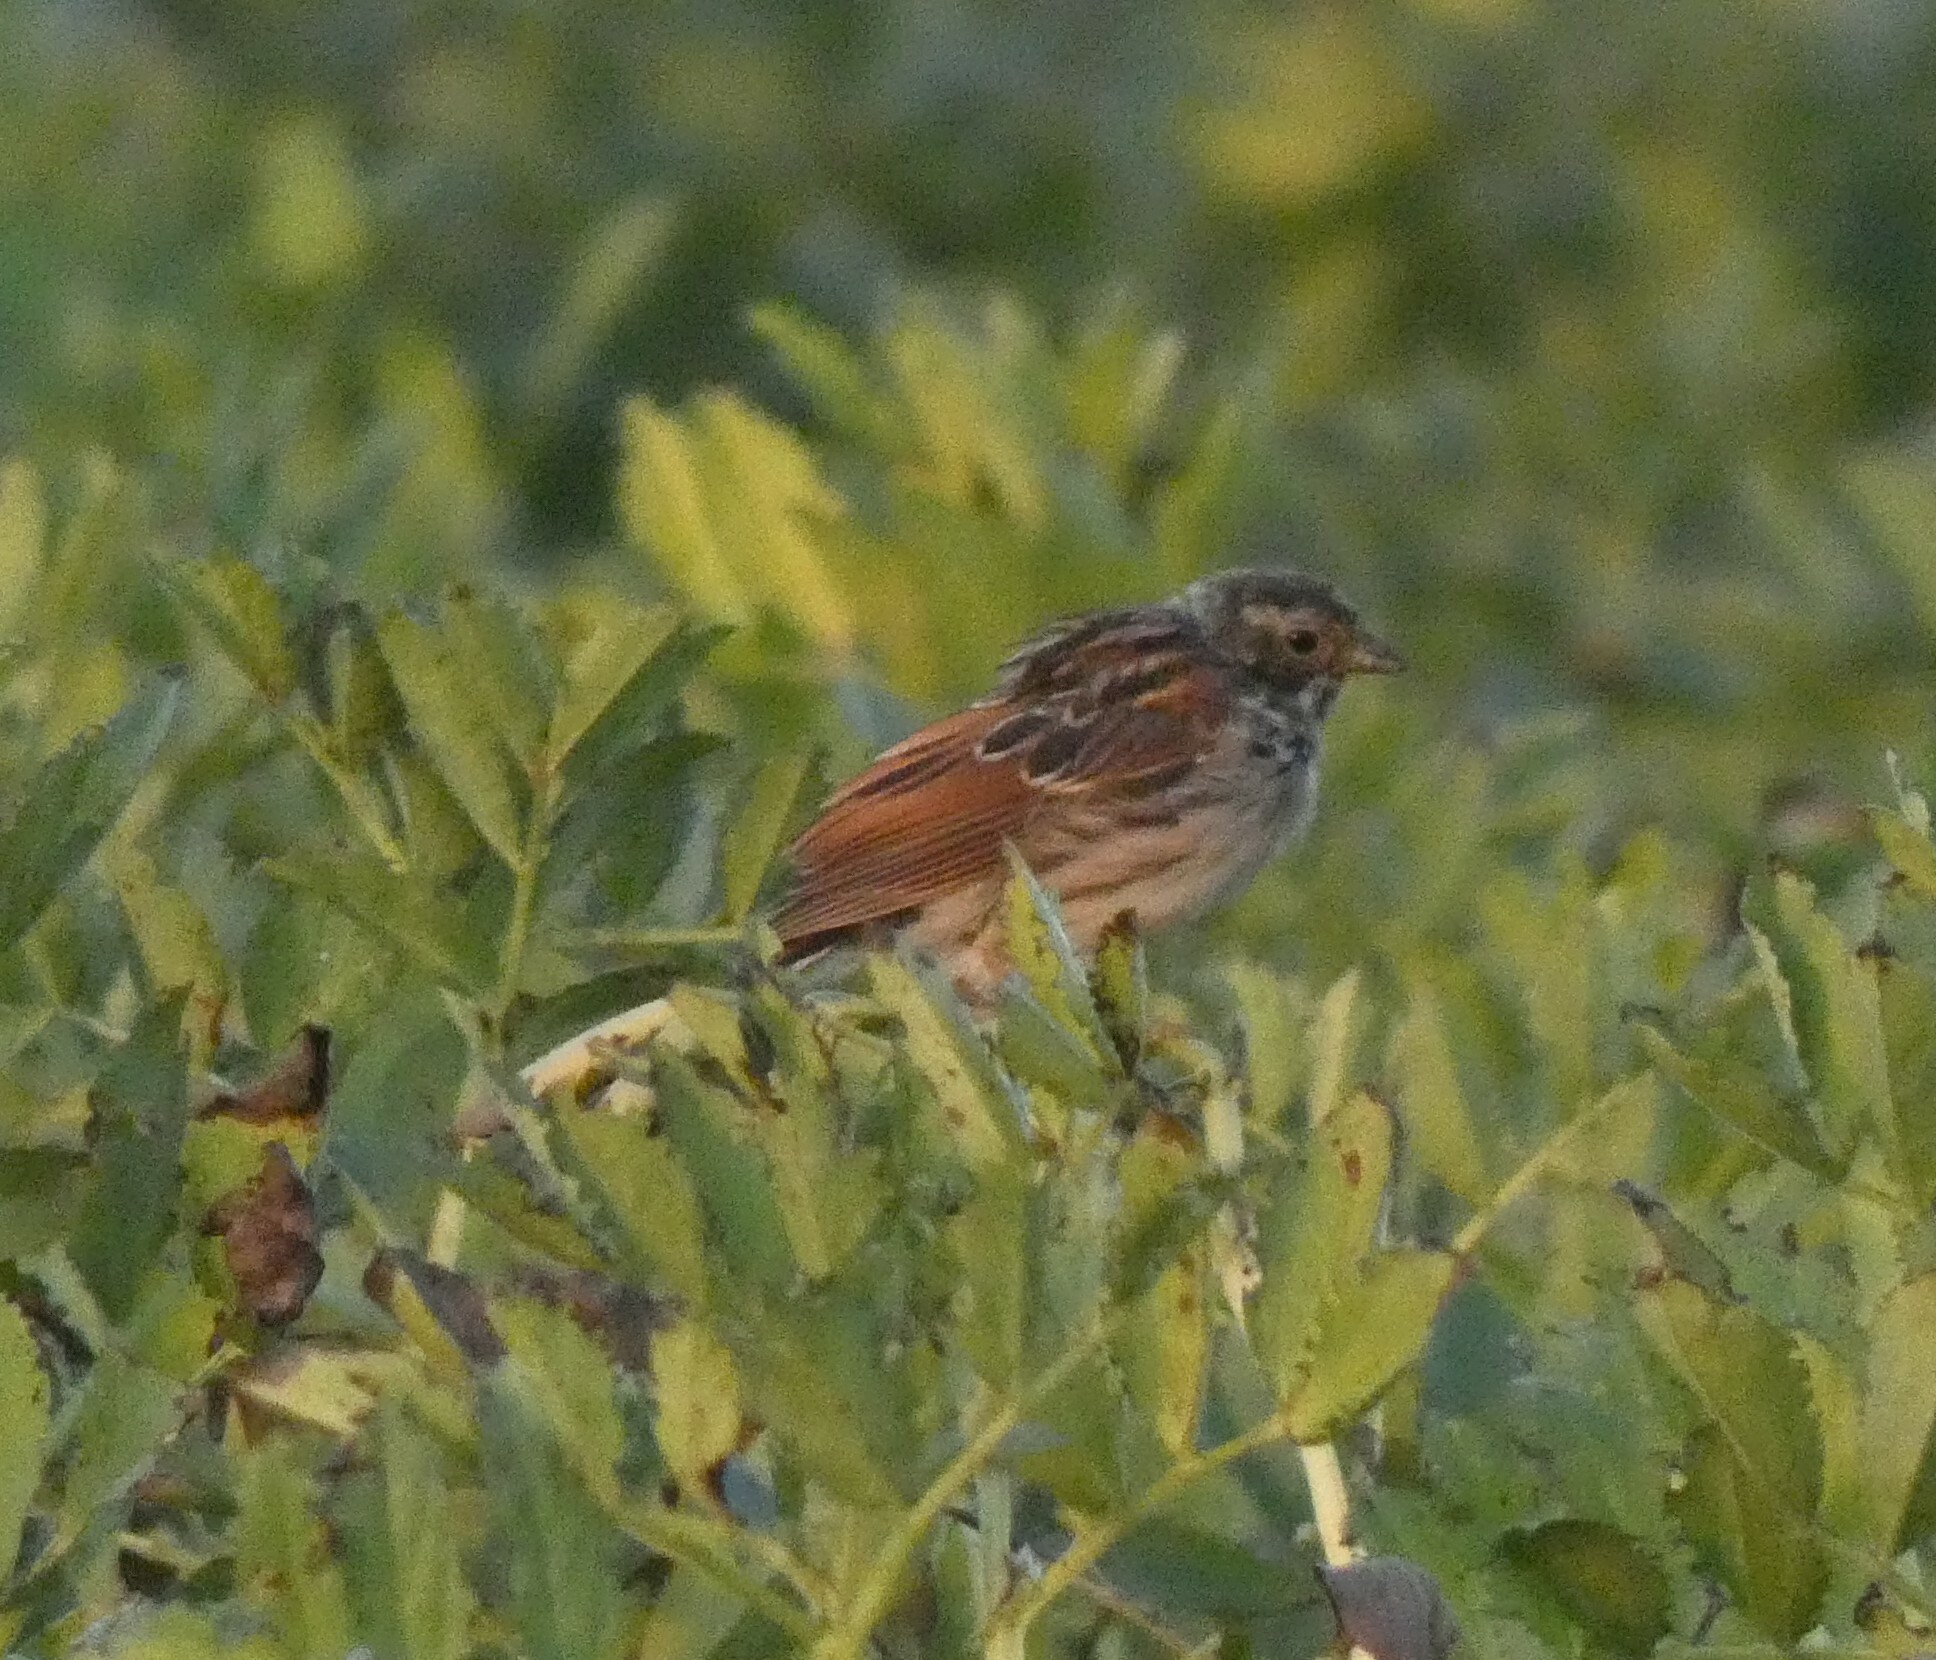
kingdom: Animalia
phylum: Chordata
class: Aves
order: Passeriformes
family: Emberizidae
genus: Emberiza
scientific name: Emberiza schoeniclus
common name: Reed bunting
